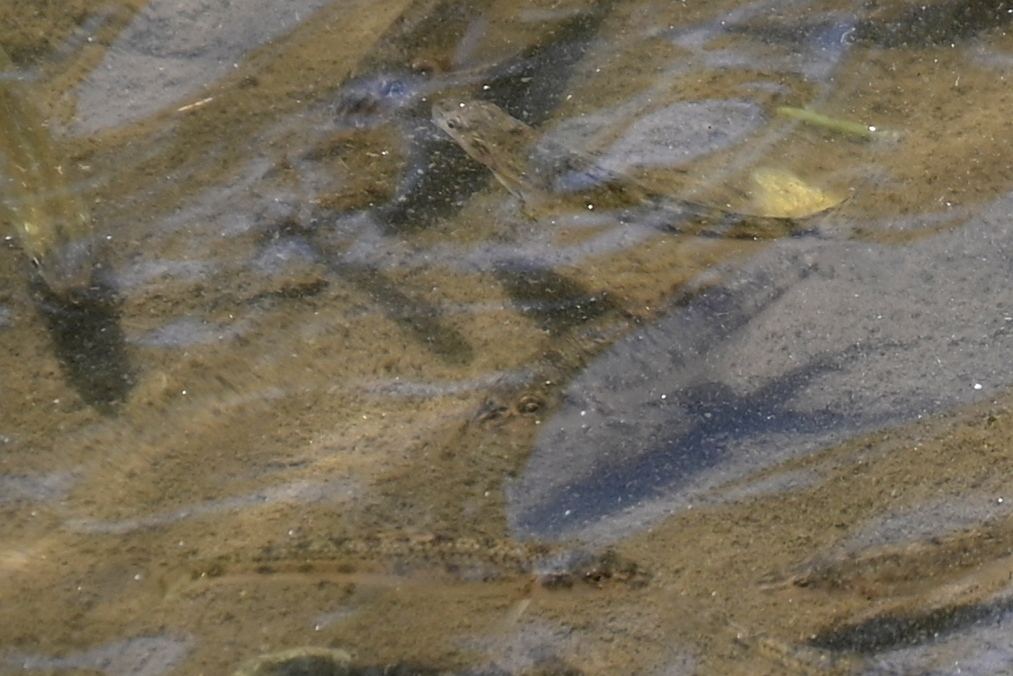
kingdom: Animalia
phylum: Chordata
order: Cypriniformes
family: Cyprinidae
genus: Gobio
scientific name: Gobio gobio
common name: Gudgeon
